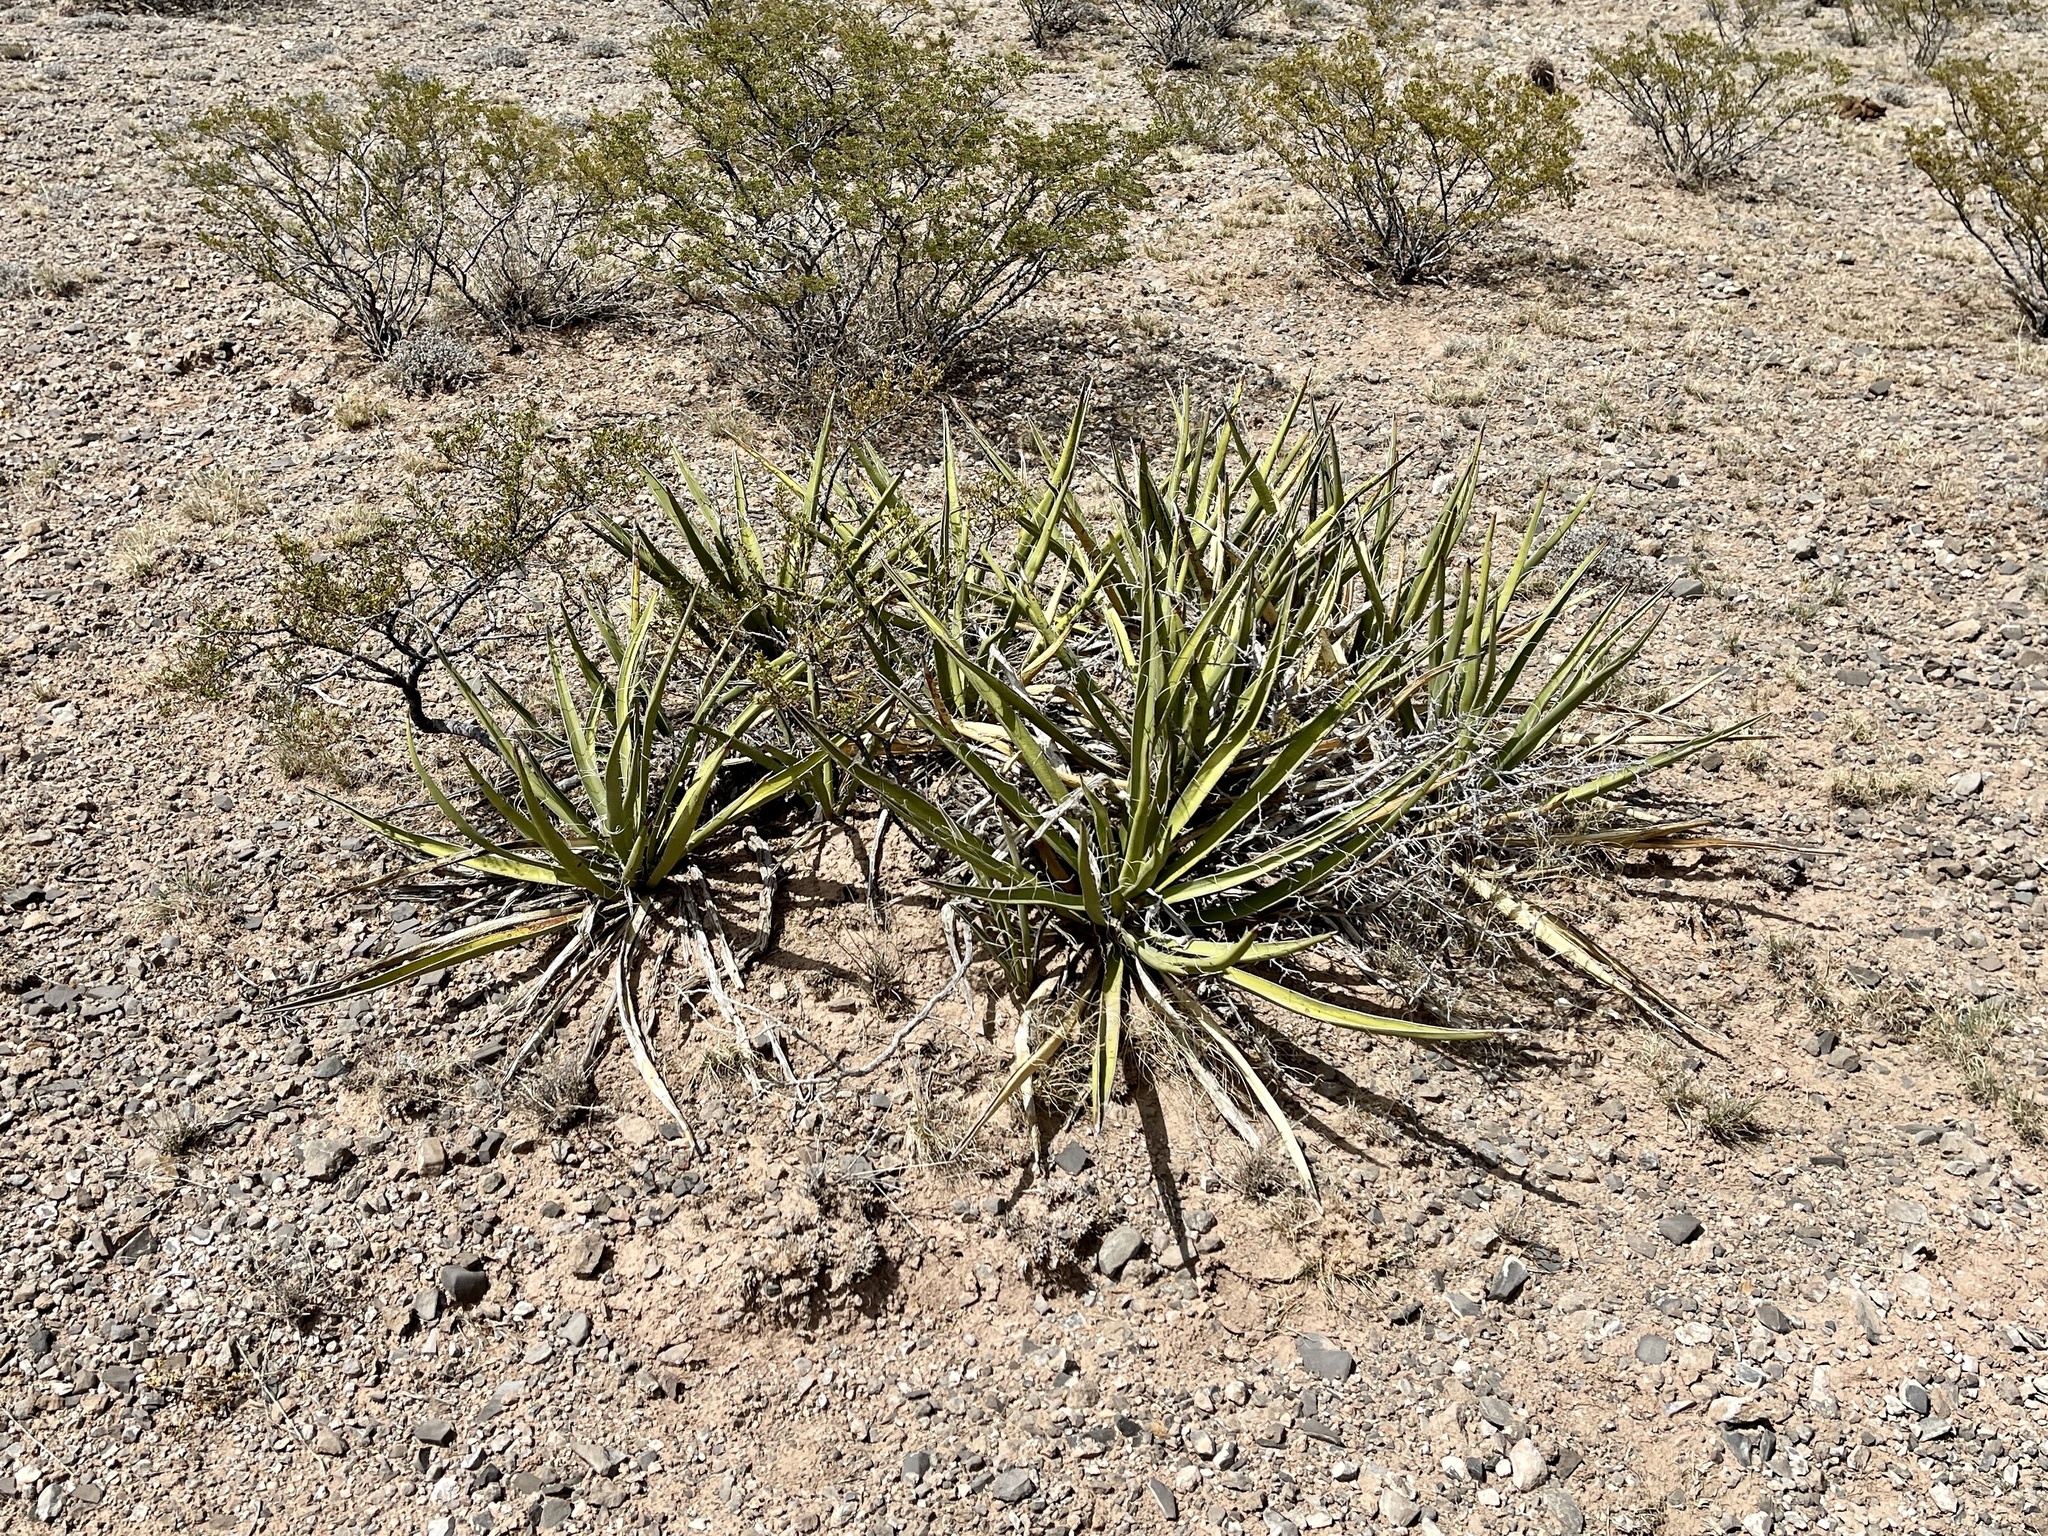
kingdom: Plantae
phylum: Tracheophyta
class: Liliopsida
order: Asparagales
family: Asparagaceae
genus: Yucca
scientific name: Yucca baccata
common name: Banana yucca
